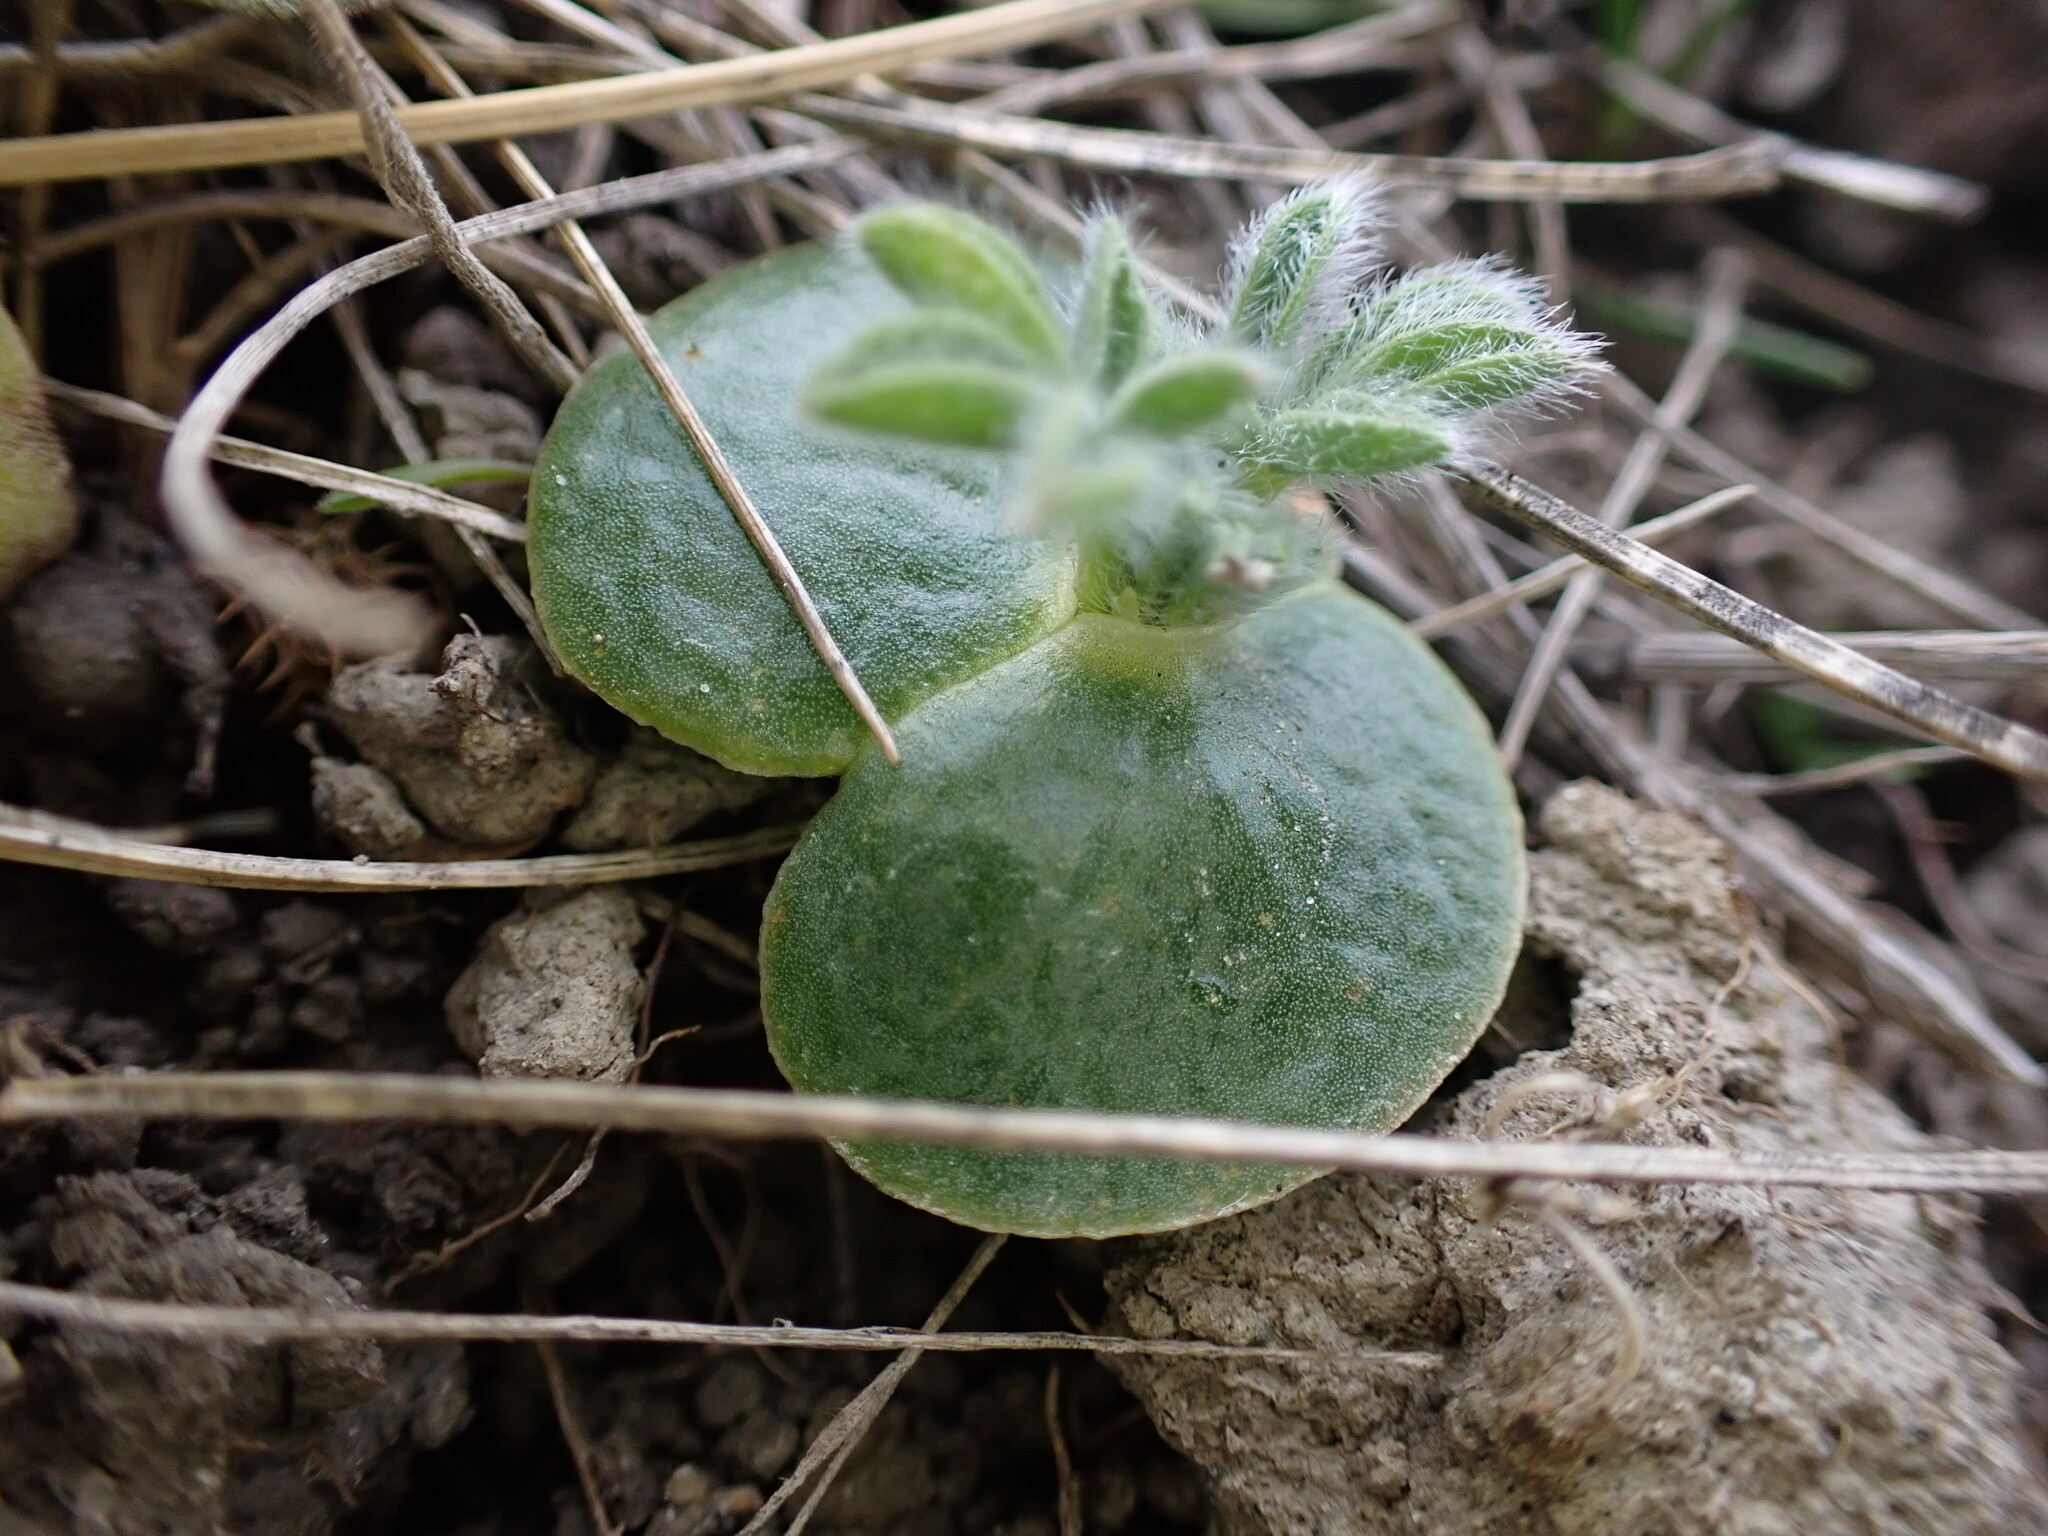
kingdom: Plantae
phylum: Tracheophyta
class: Magnoliopsida
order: Fabales
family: Fabaceae
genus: Lupinus
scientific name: Lupinus densiflorus
